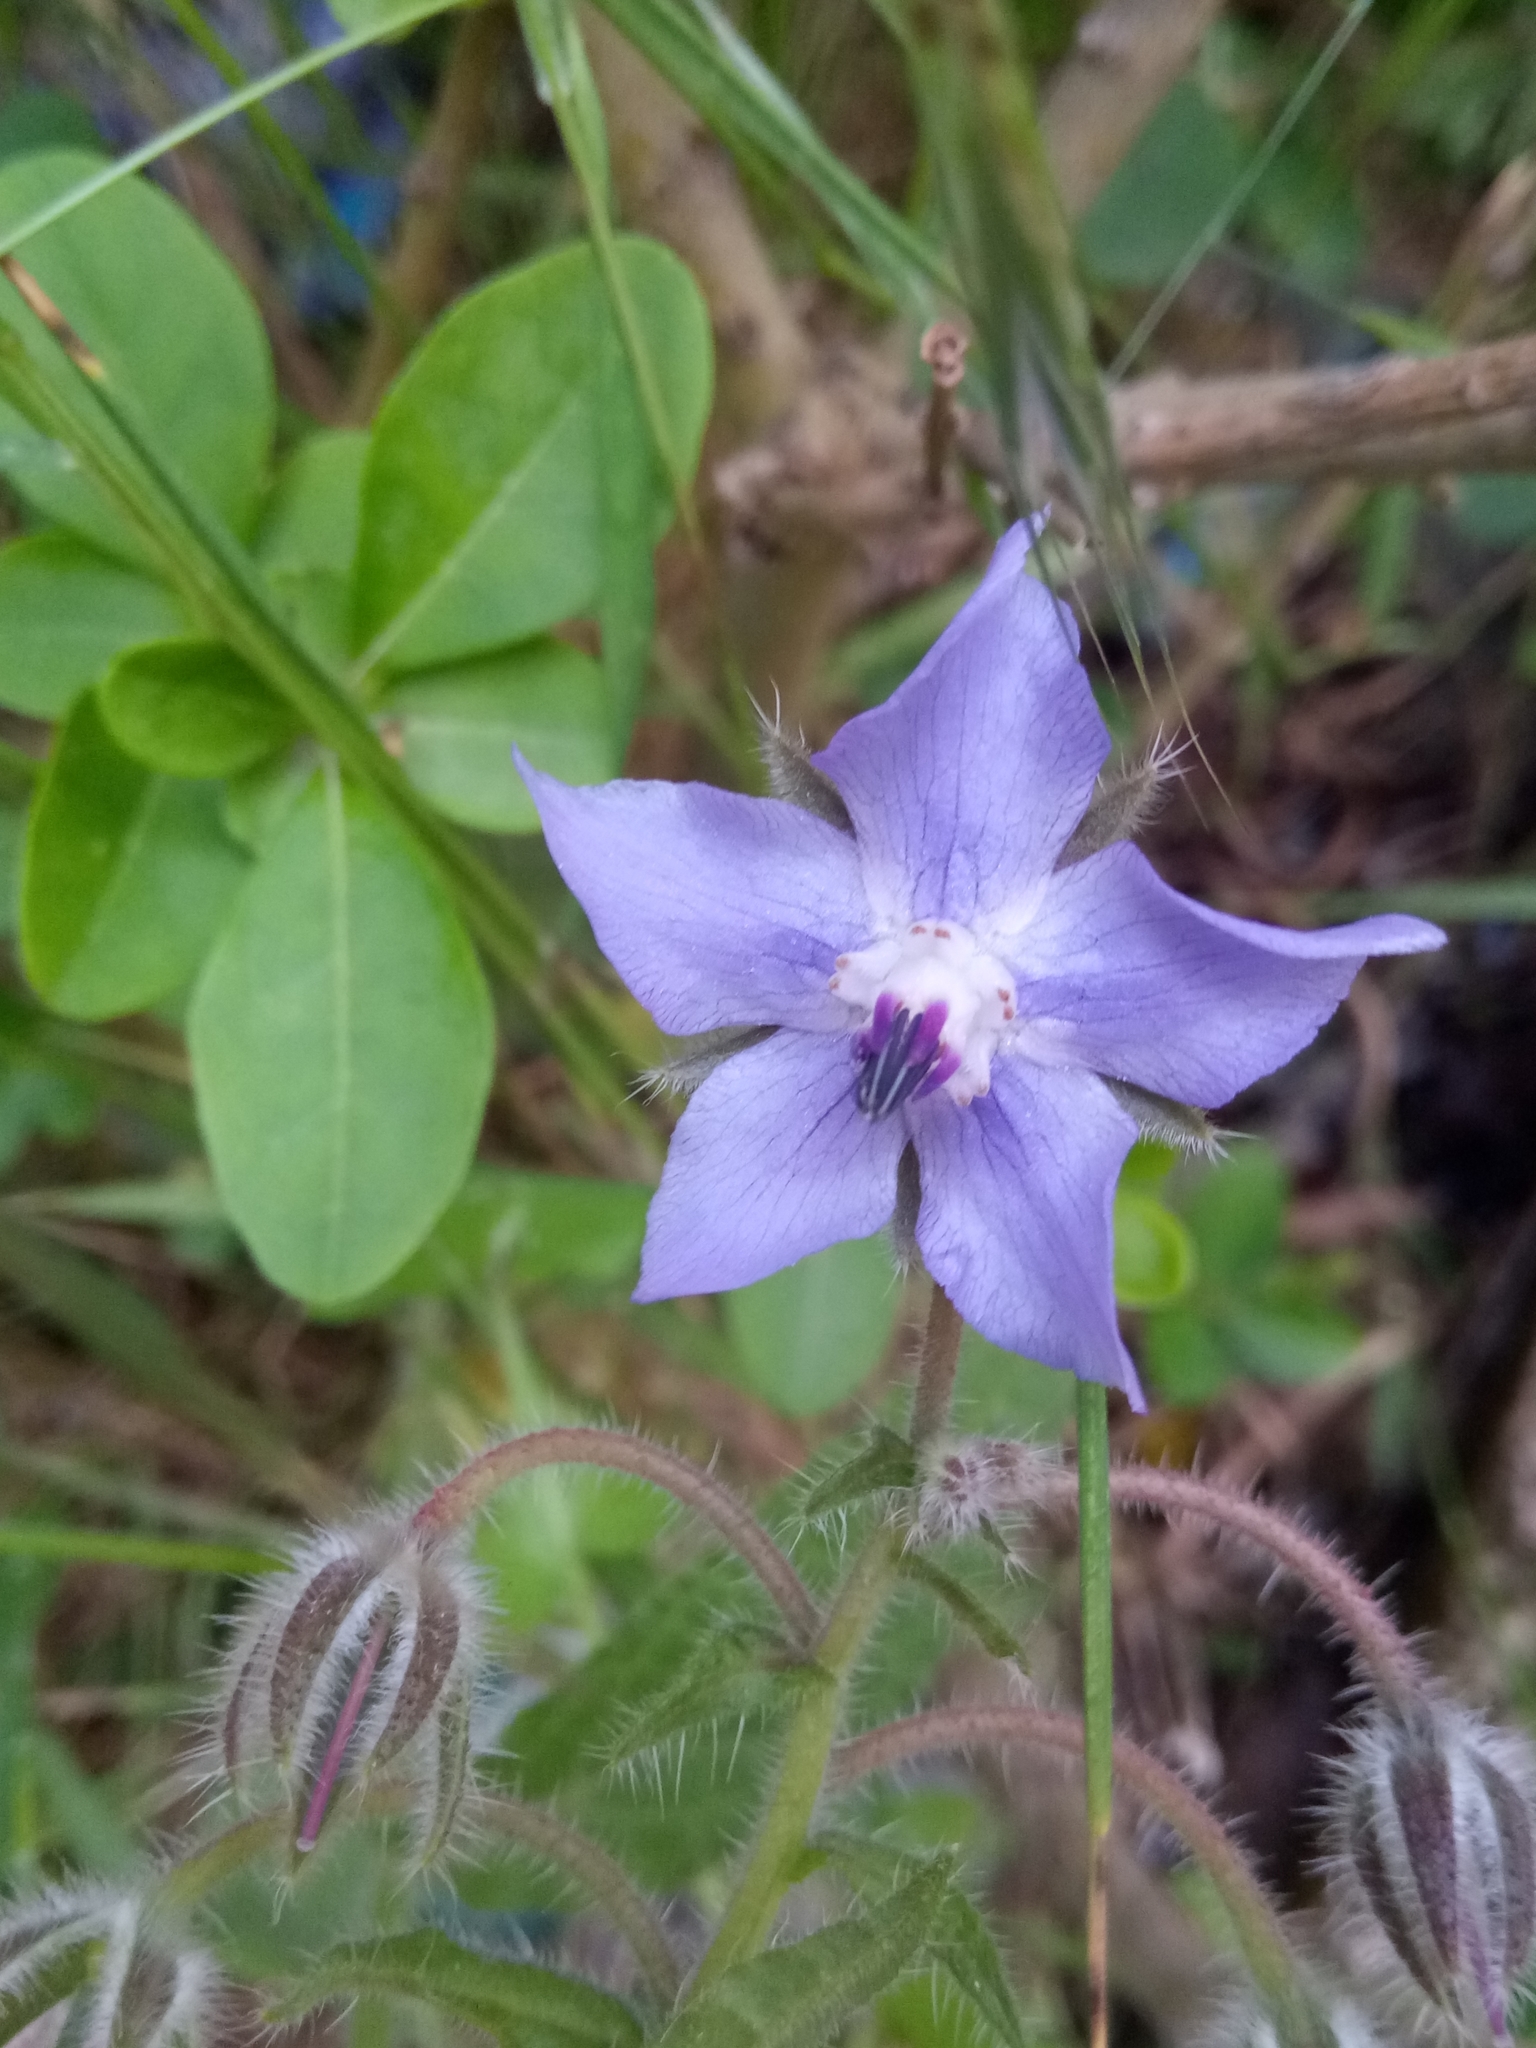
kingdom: Plantae
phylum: Tracheophyta
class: Magnoliopsida
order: Boraginales
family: Boraginaceae
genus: Borago
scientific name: Borago officinalis
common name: Borage
